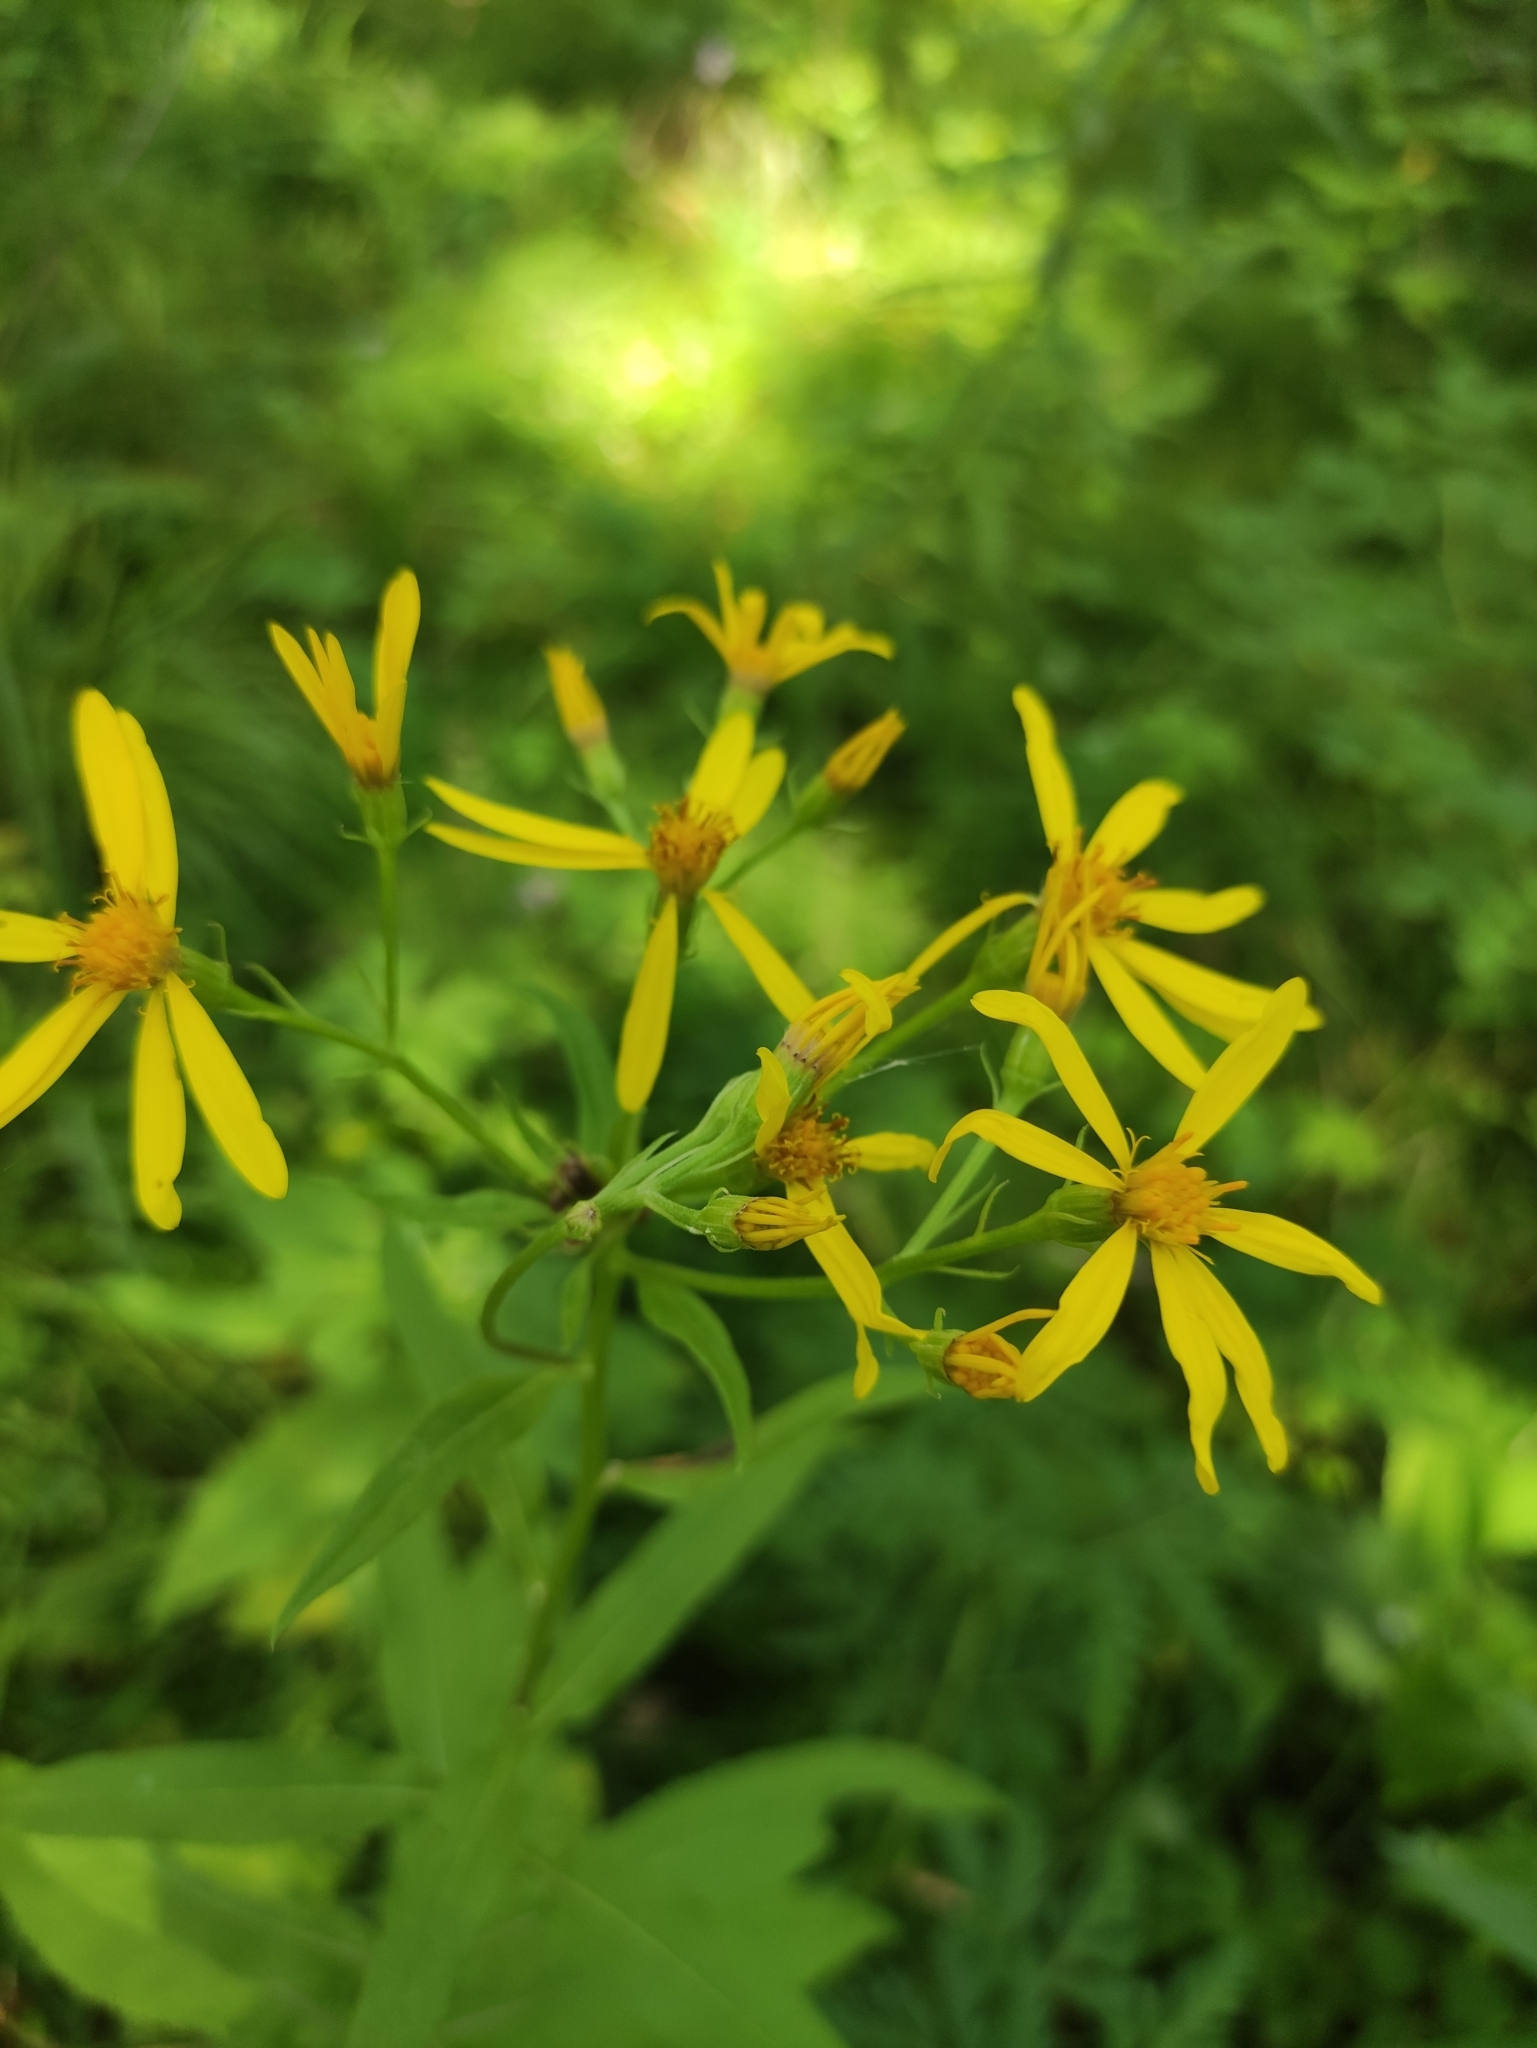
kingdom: Plantae
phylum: Tracheophyta
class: Magnoliopsida
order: Asterales
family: Asteraceae
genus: Senecio
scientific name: Senecio nemorensis
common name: Alpine ragwort
